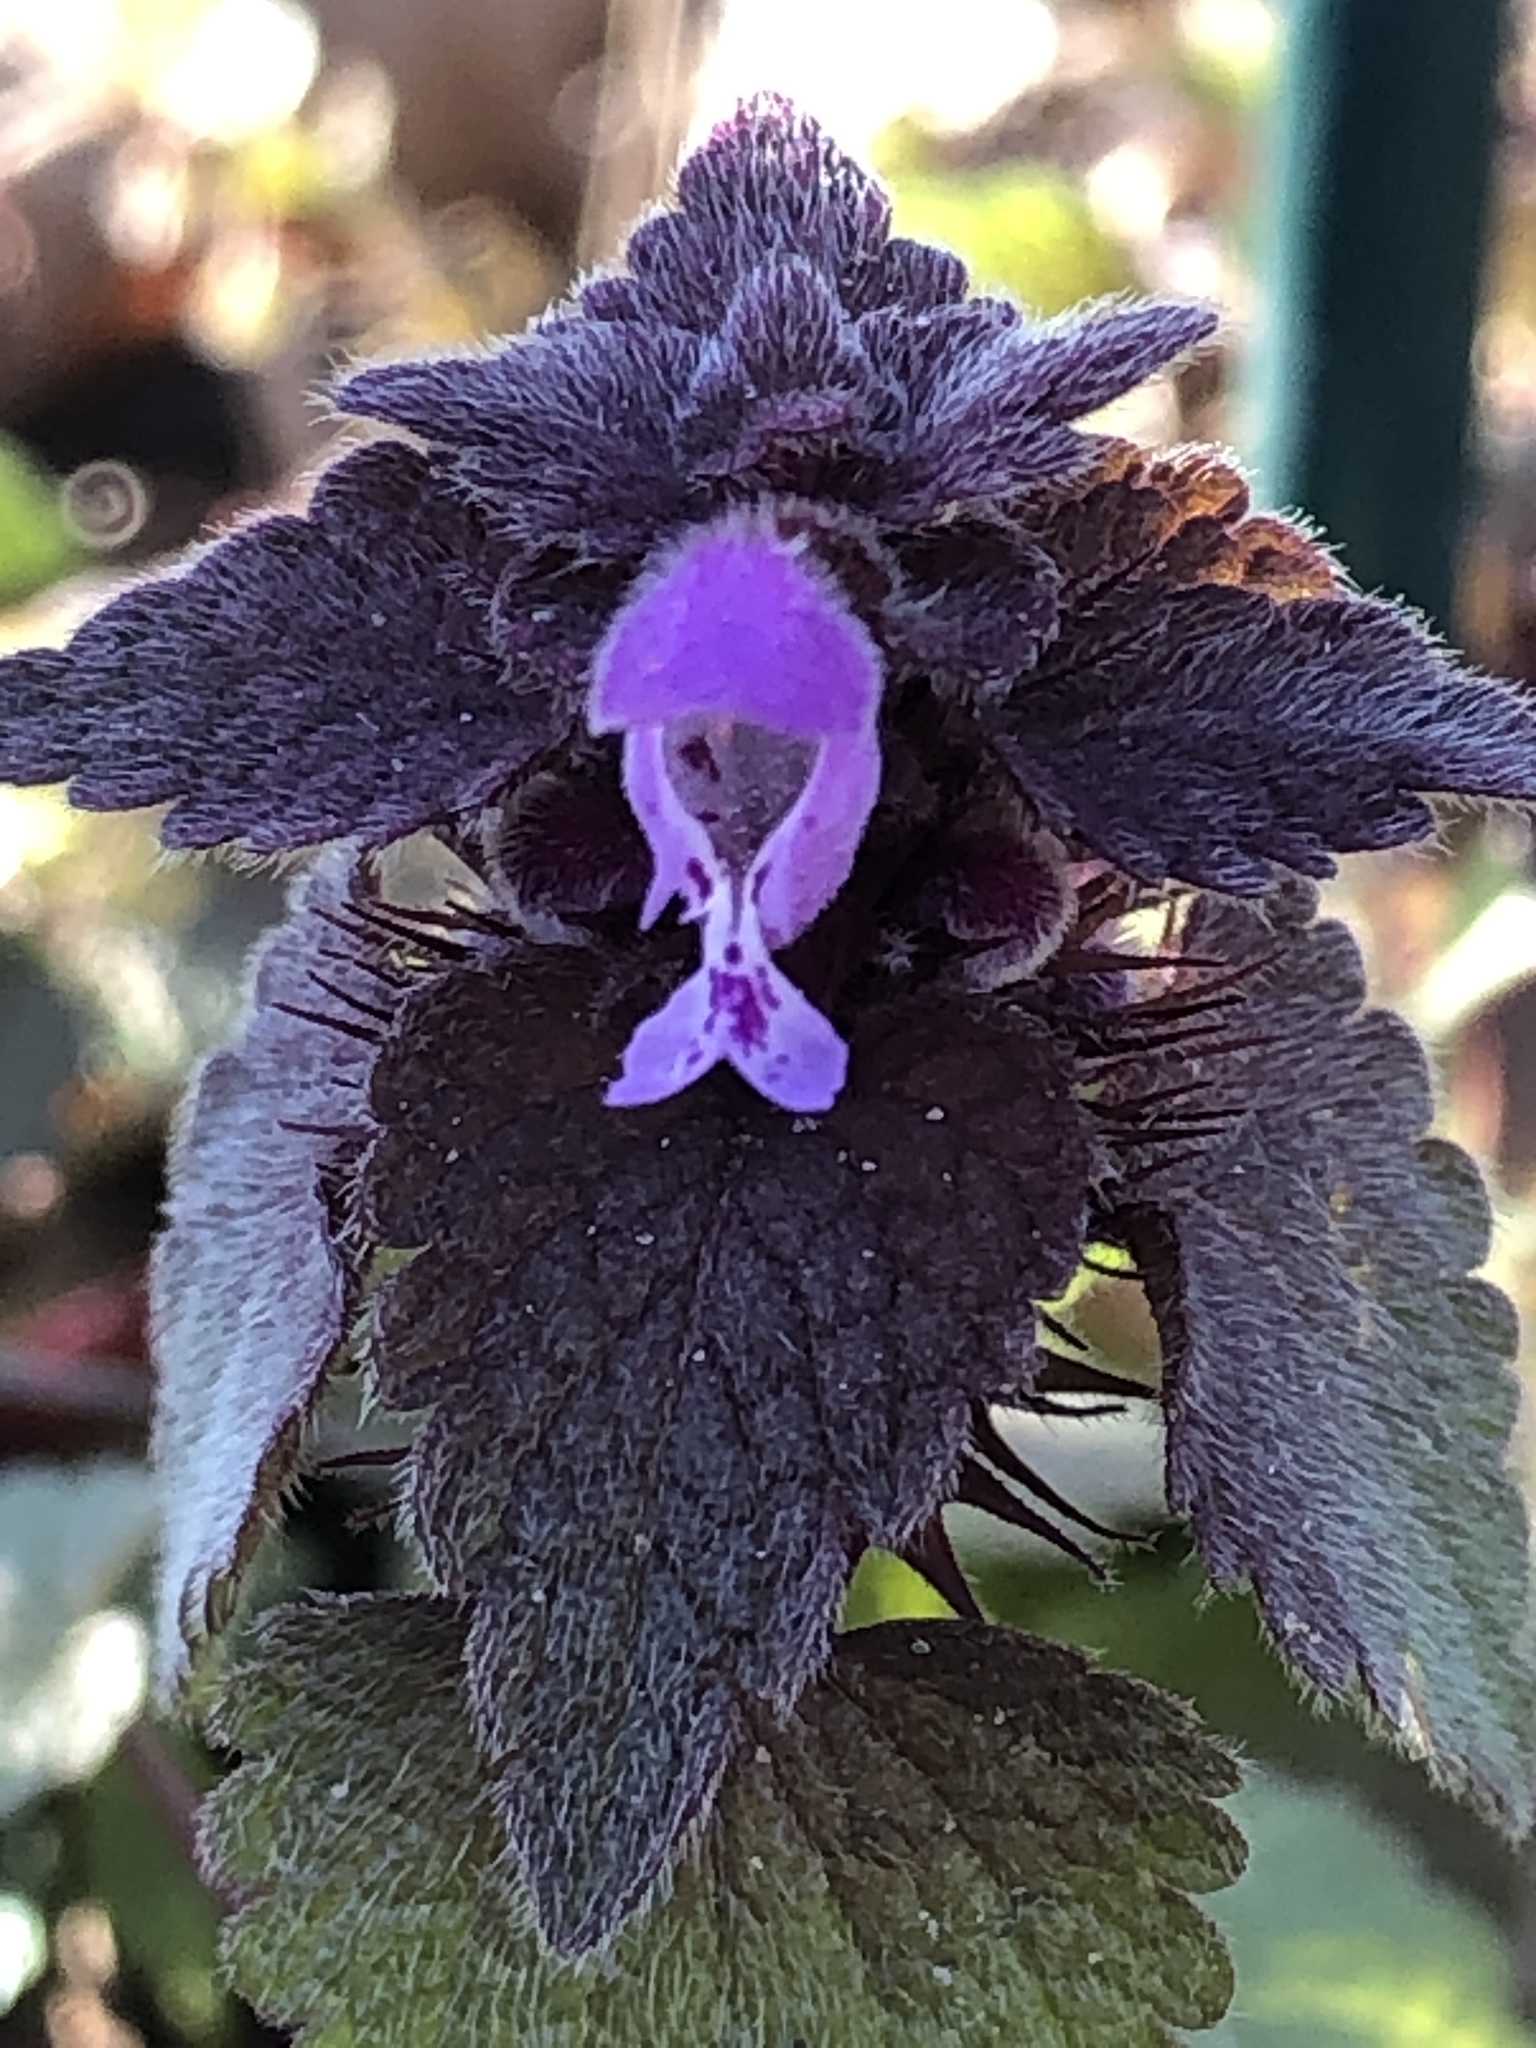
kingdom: Plantae
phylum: Tracheophyta
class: Magnoliopsida
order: Lamiales
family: Lamiaceae
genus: Lamium
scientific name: Lamium purpureum
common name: Red dead-nettle
